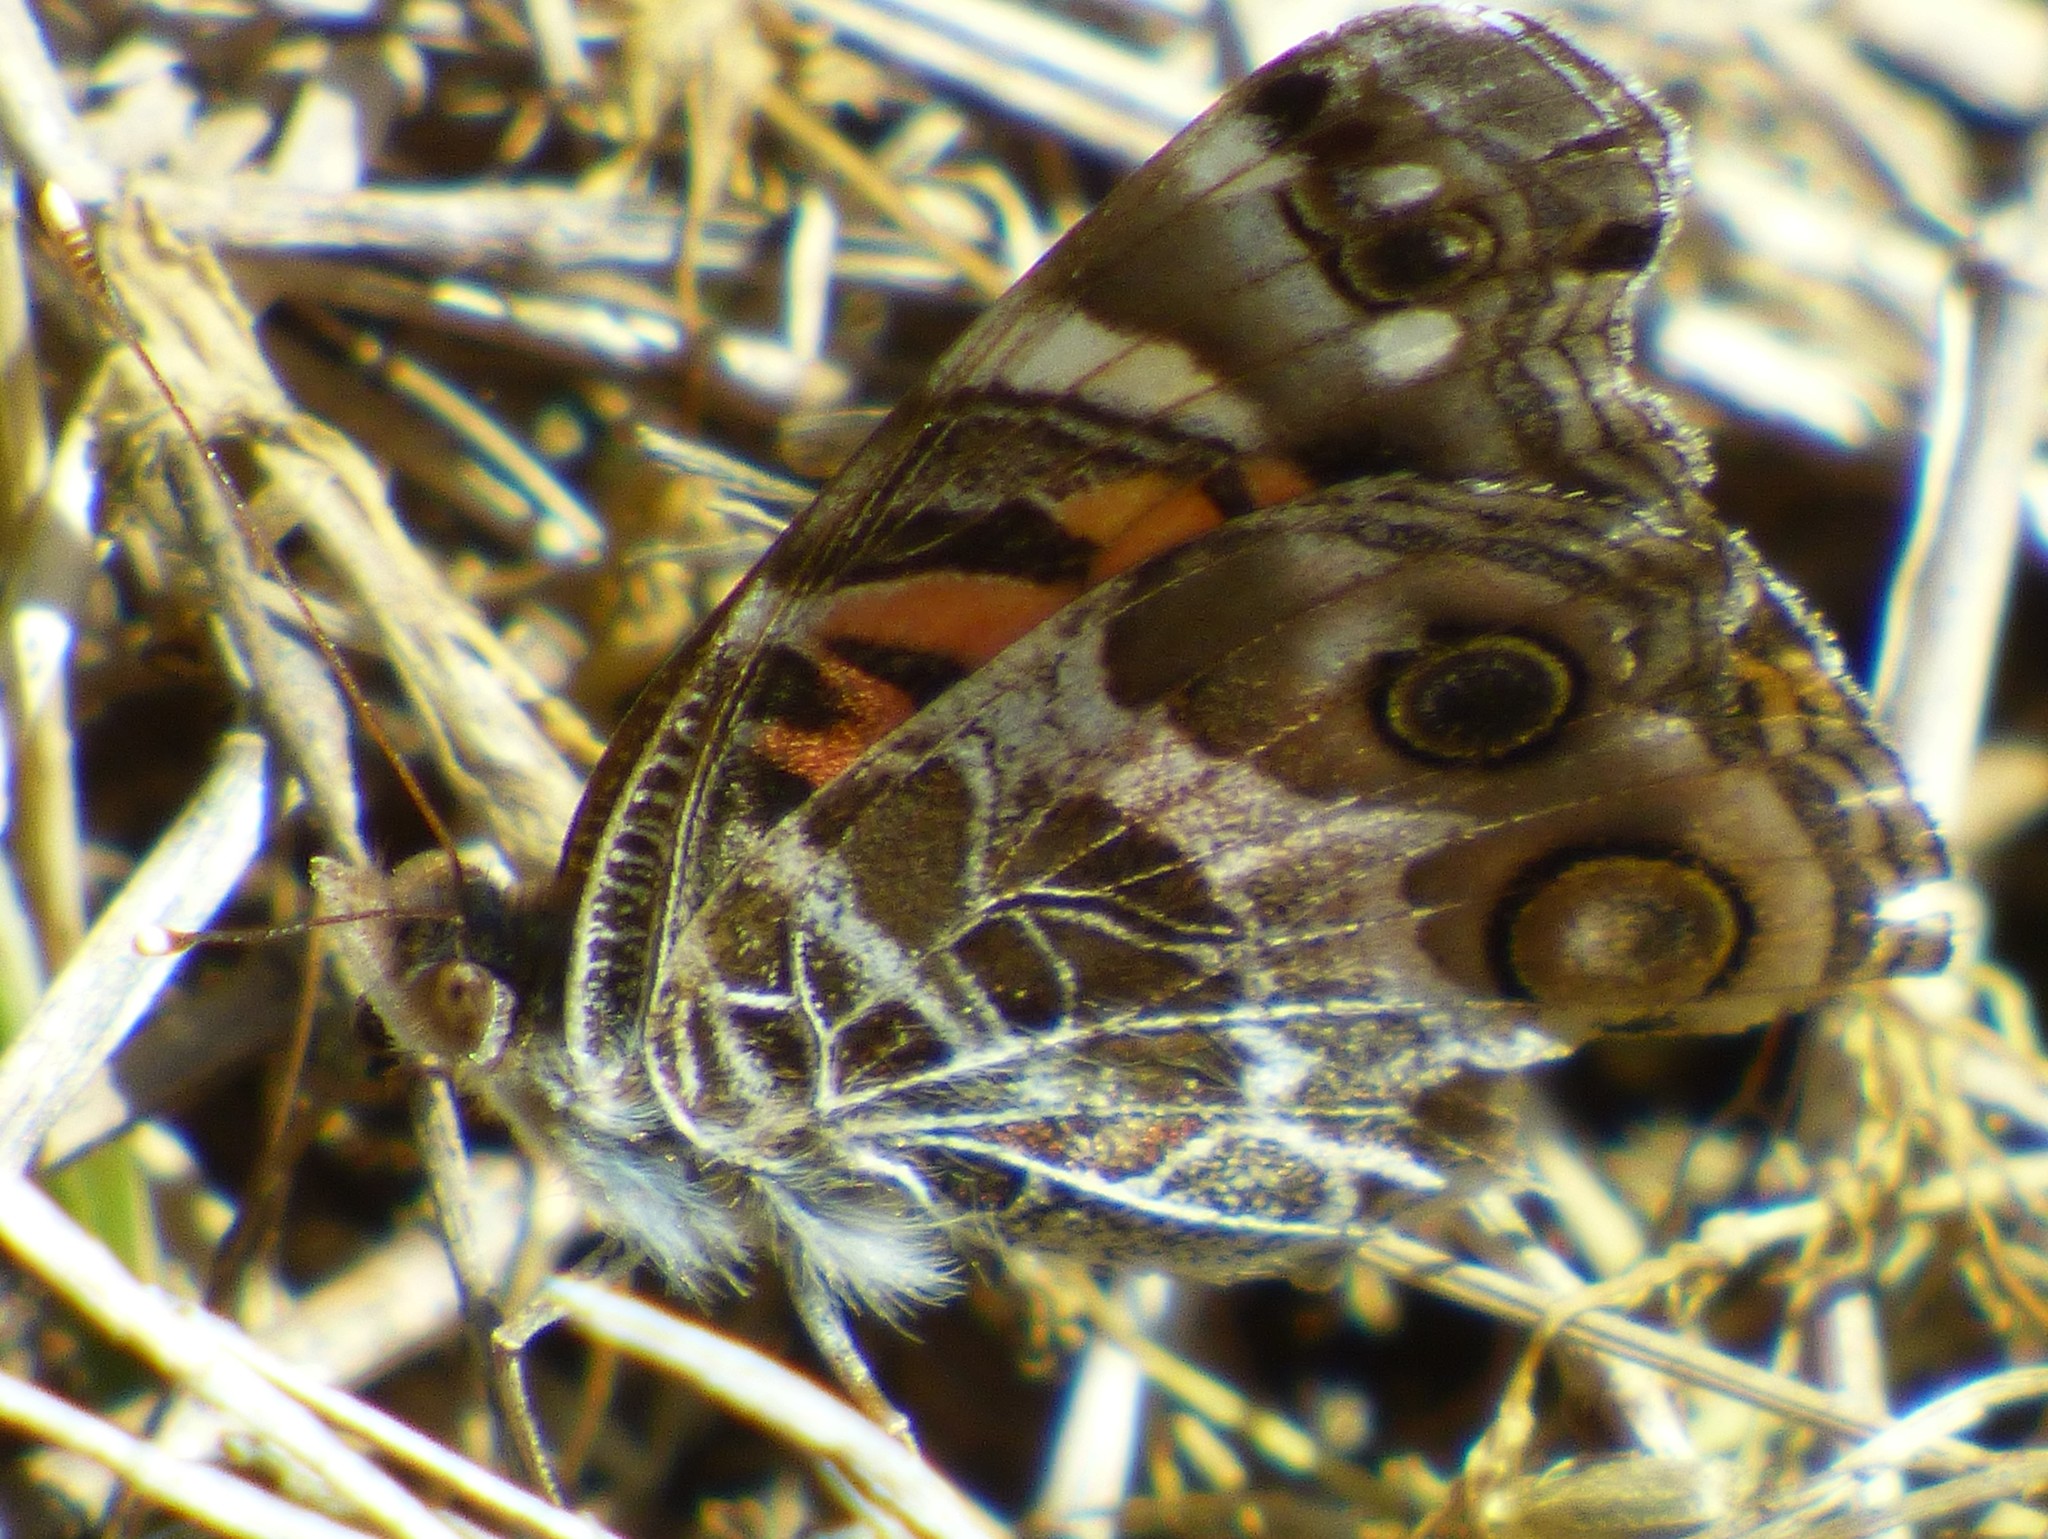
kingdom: Animalia
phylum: Arthropoda
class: Insecta
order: Lepidoptera
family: Nymphalidae
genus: Vanessa
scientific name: Vanessa virginiensis
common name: American lady
